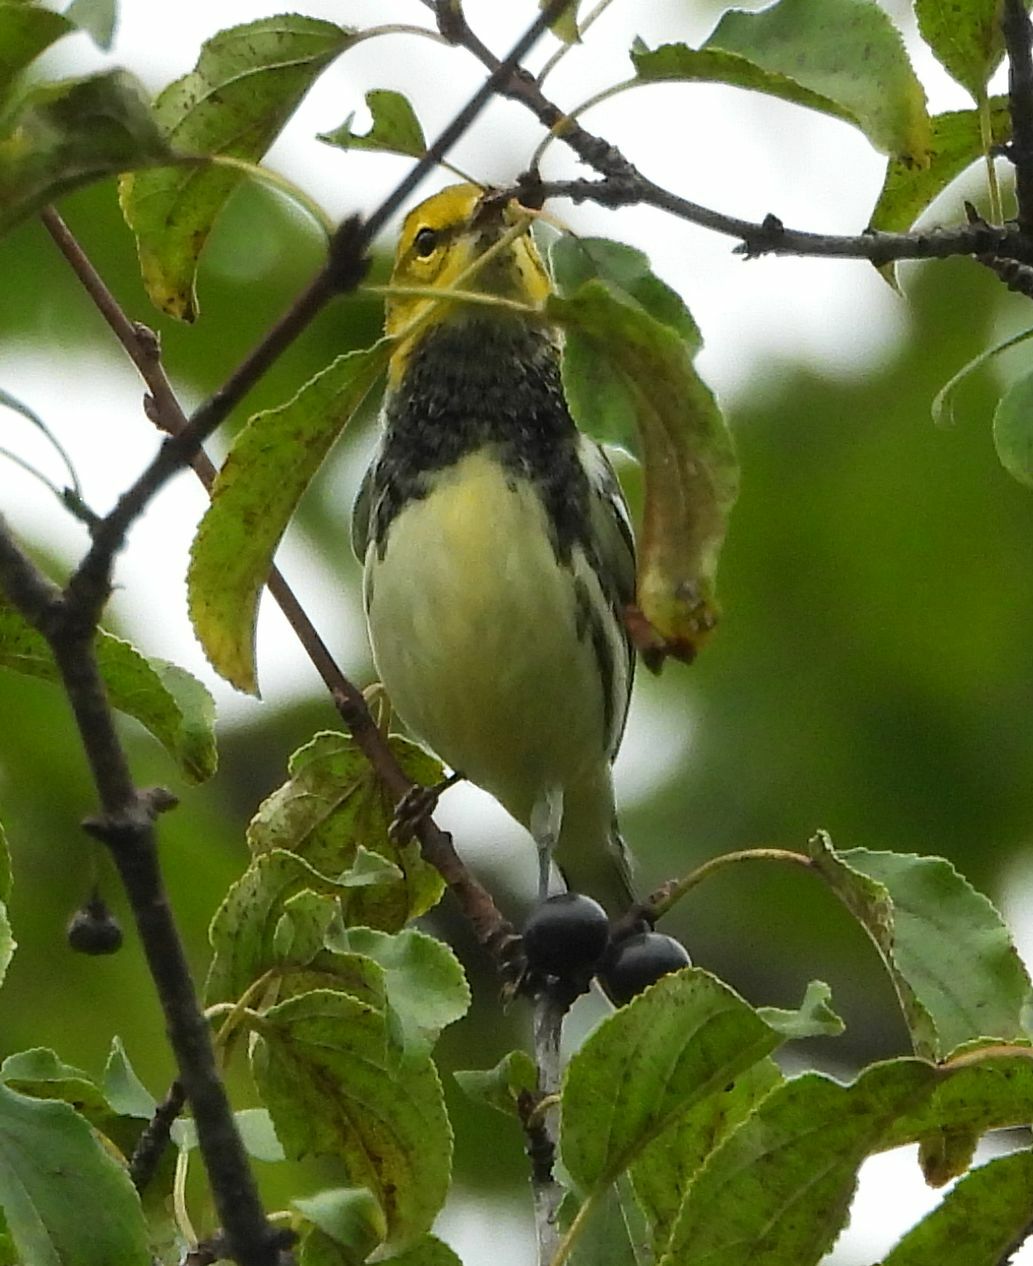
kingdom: Animalia
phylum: Chordata
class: Aves
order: Passeriformes
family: Parulidae
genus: Setophaga
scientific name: Setophaga virens
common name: Black-throated green warbler
